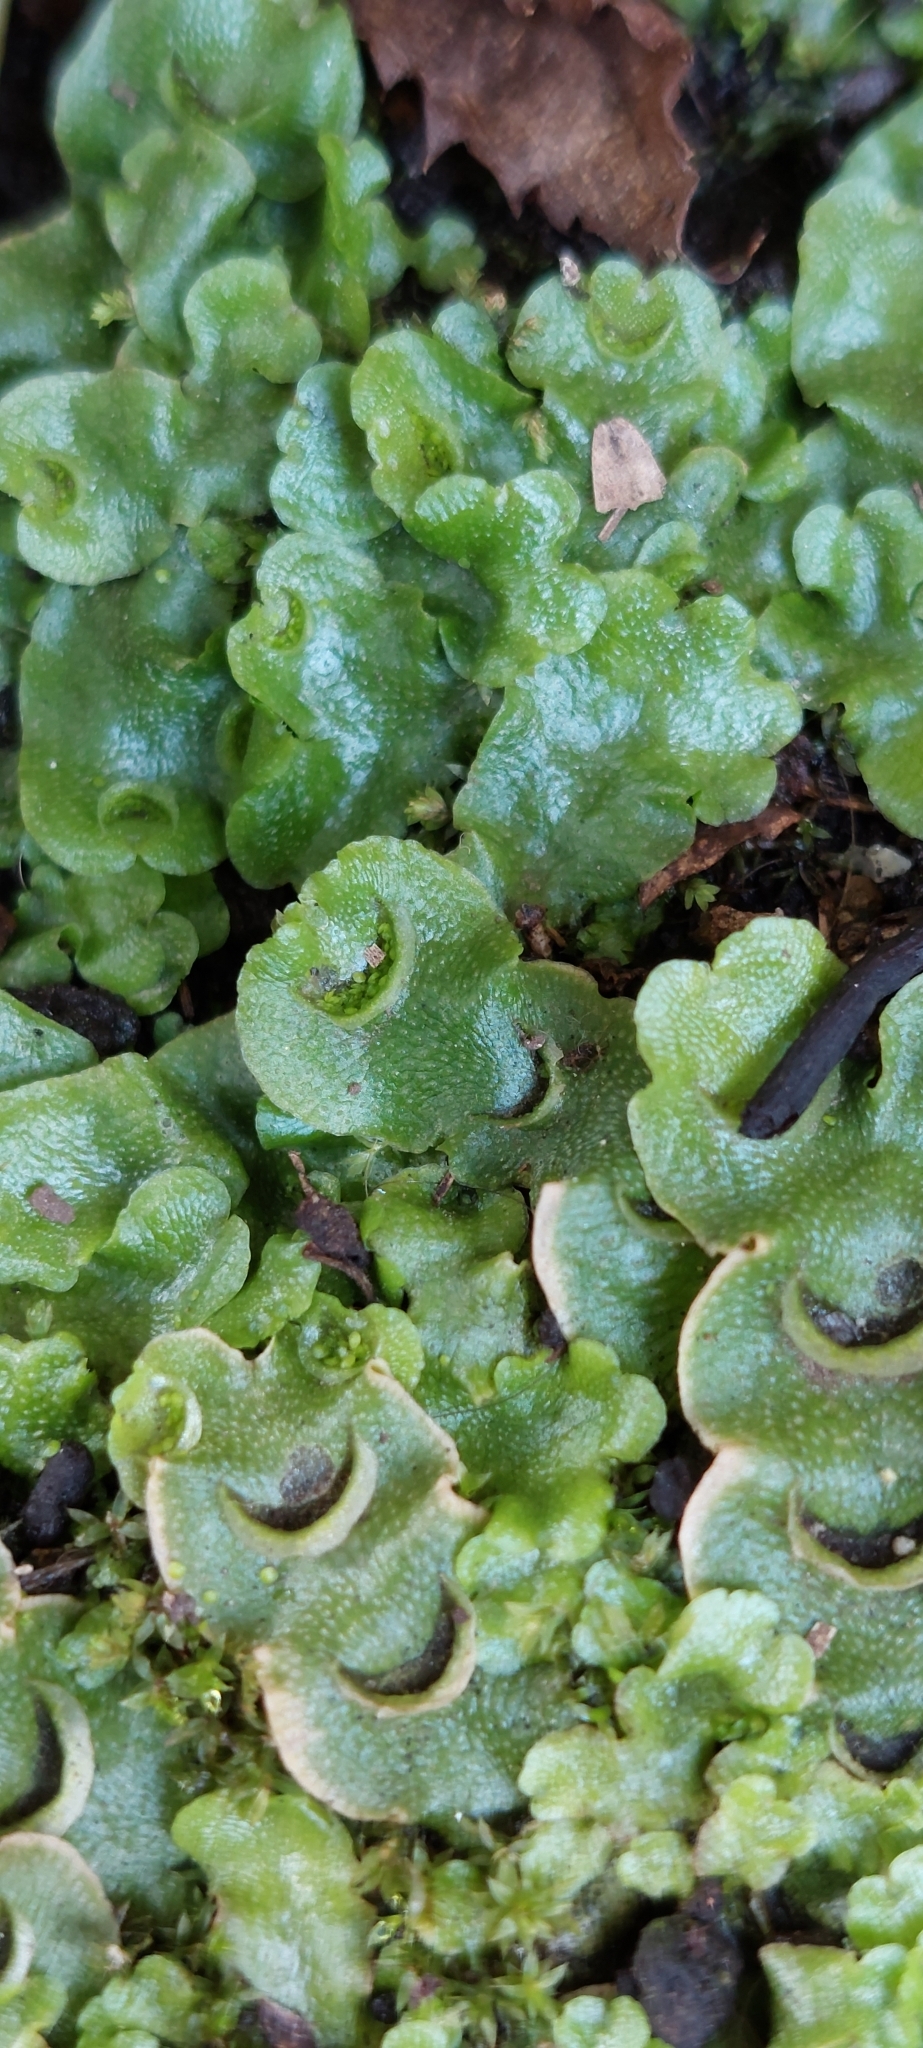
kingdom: Plantae
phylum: Marchantiophyta
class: Marchantiopsida
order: Lunulariales
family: Lunulariaceae
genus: Lunularia
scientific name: Lunularia cruciata
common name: Crescent-cup liverwort
